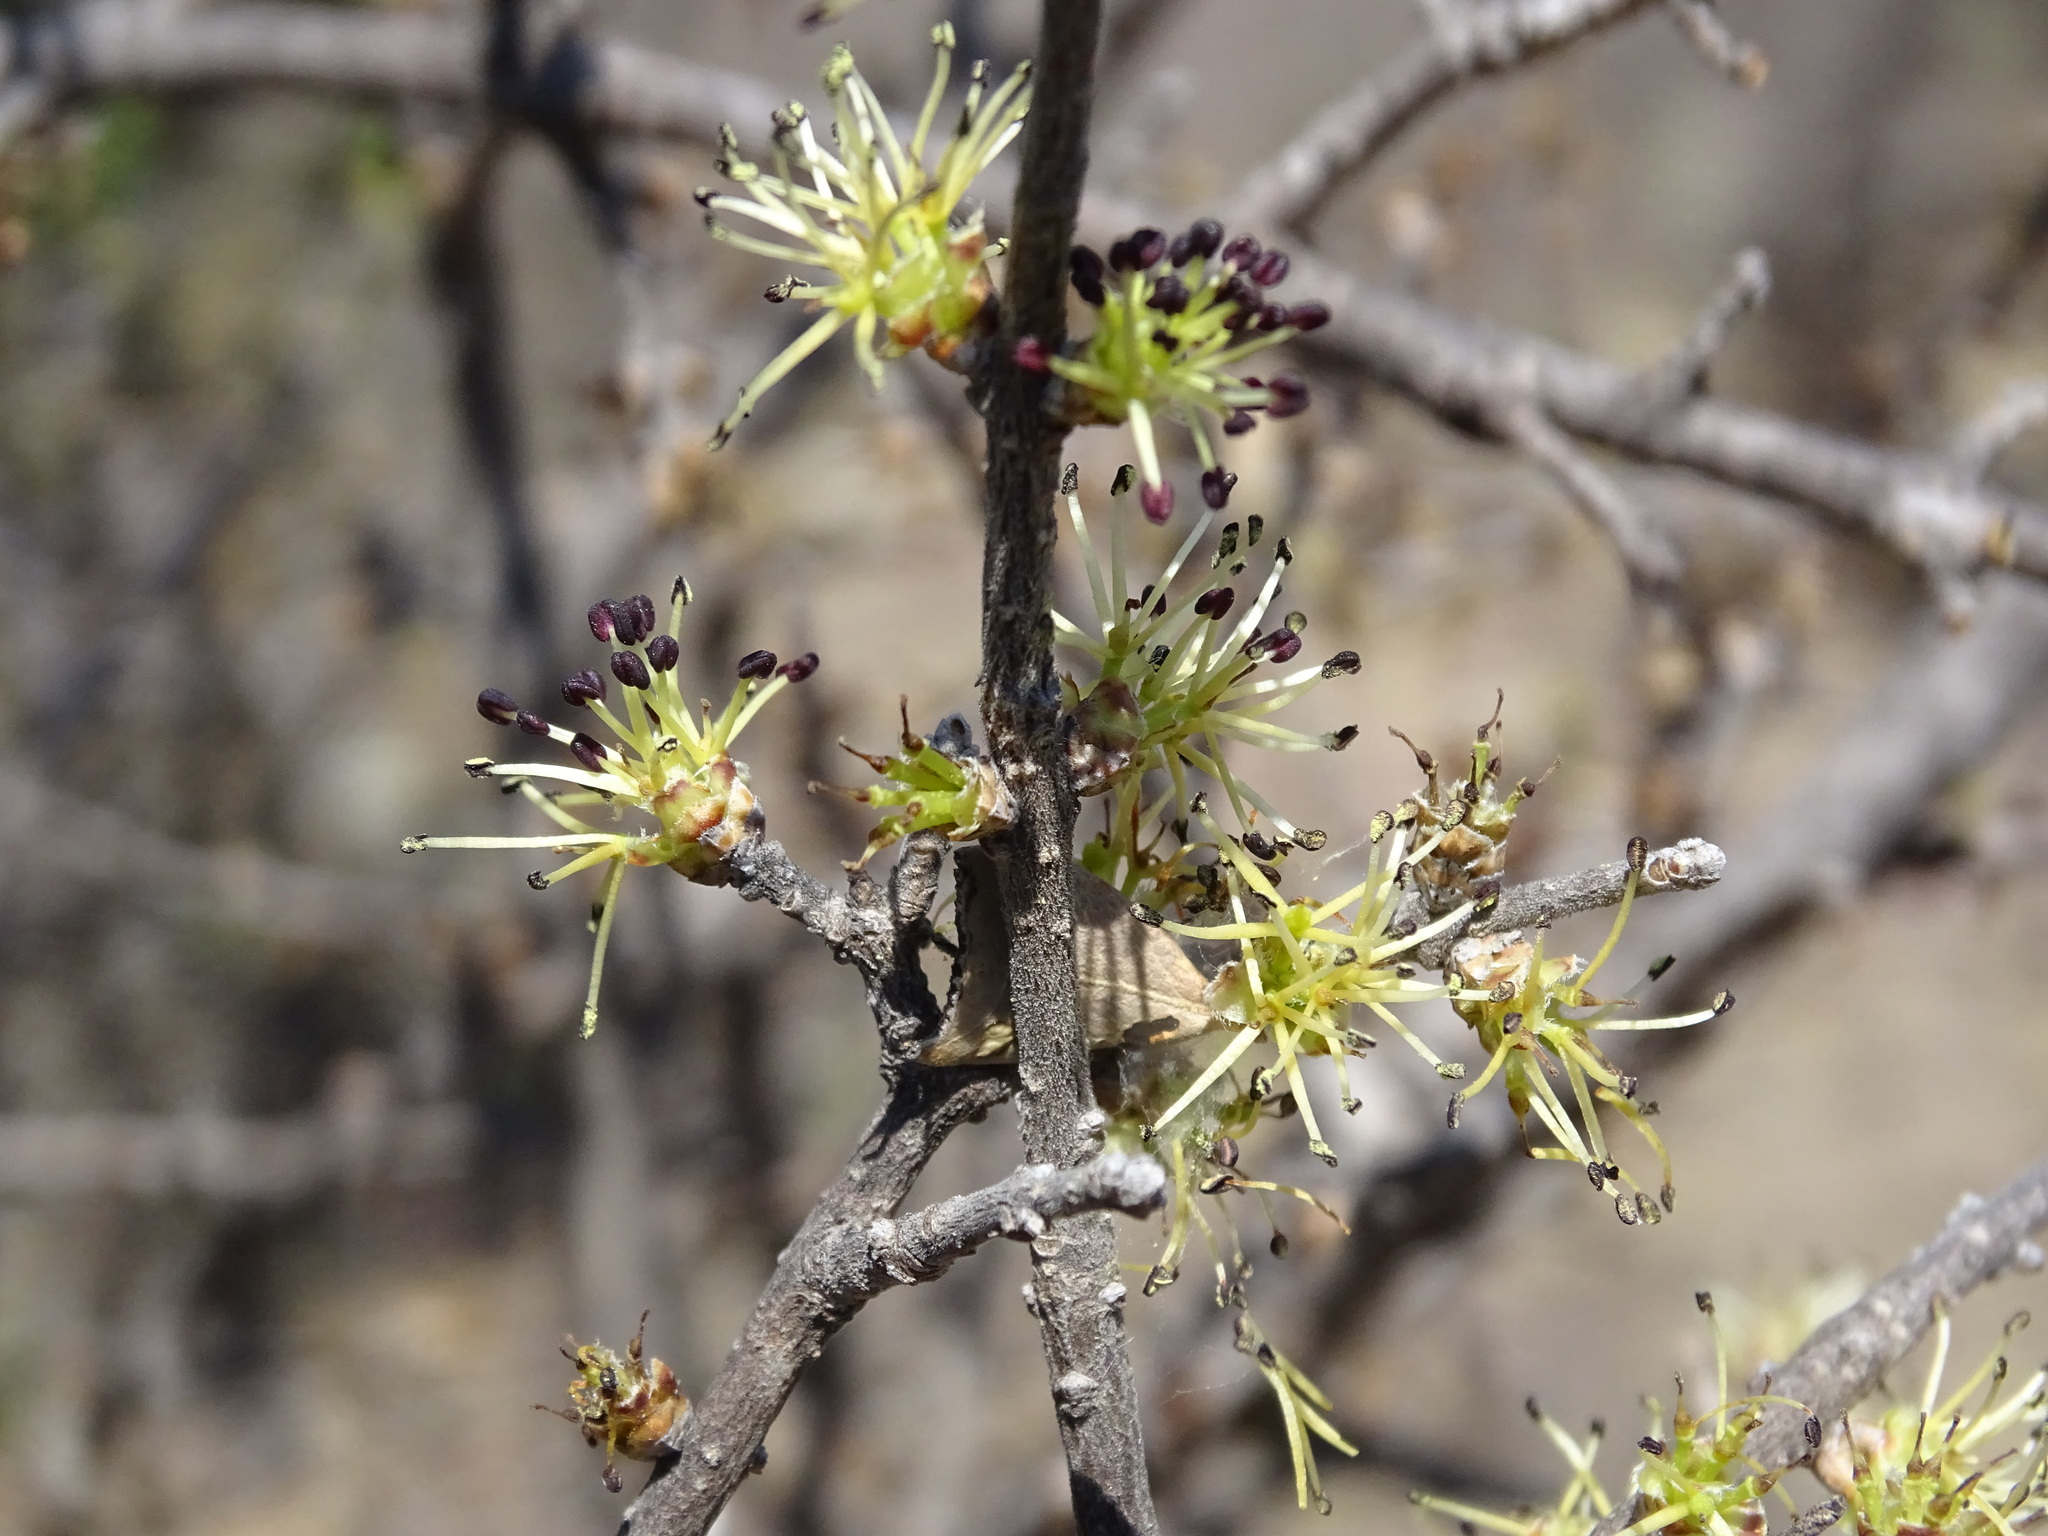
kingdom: Plantae
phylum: Tracheophyta
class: Magnoliopsida
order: Lamiales
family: Oleaceae
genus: Forestiera
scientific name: Forestiera phillyreoides
